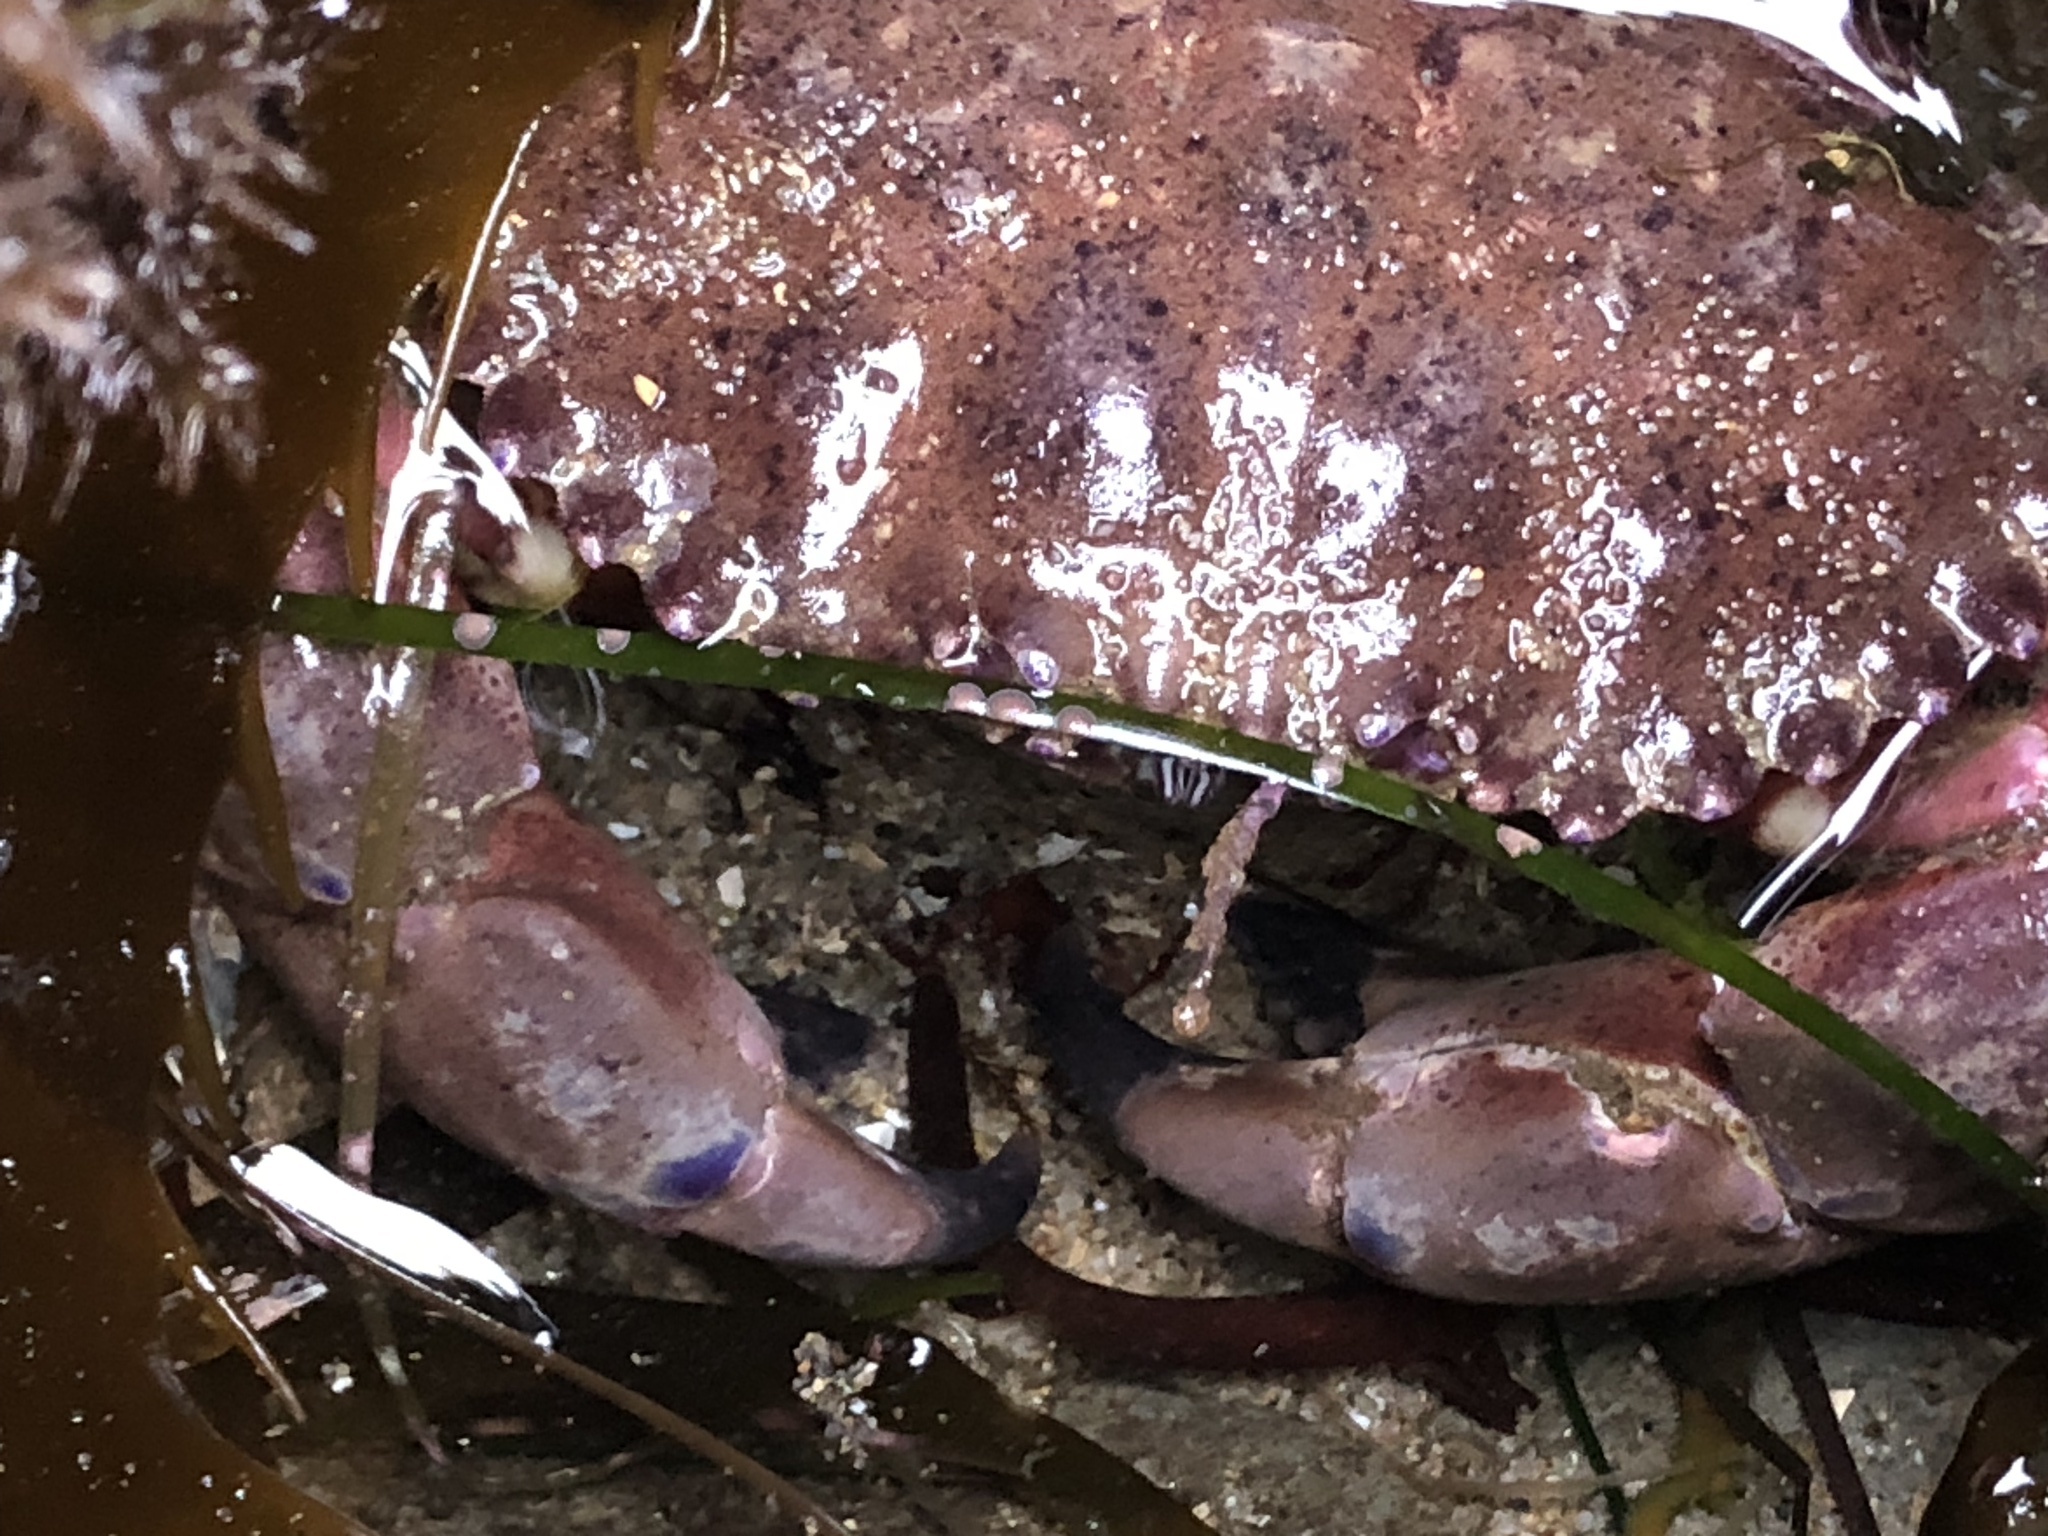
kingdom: Animalia
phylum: Arthropoda
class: Malacostraca
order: Decapoda
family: Cancridae
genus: Romaleon
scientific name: Romaleon antennarium
